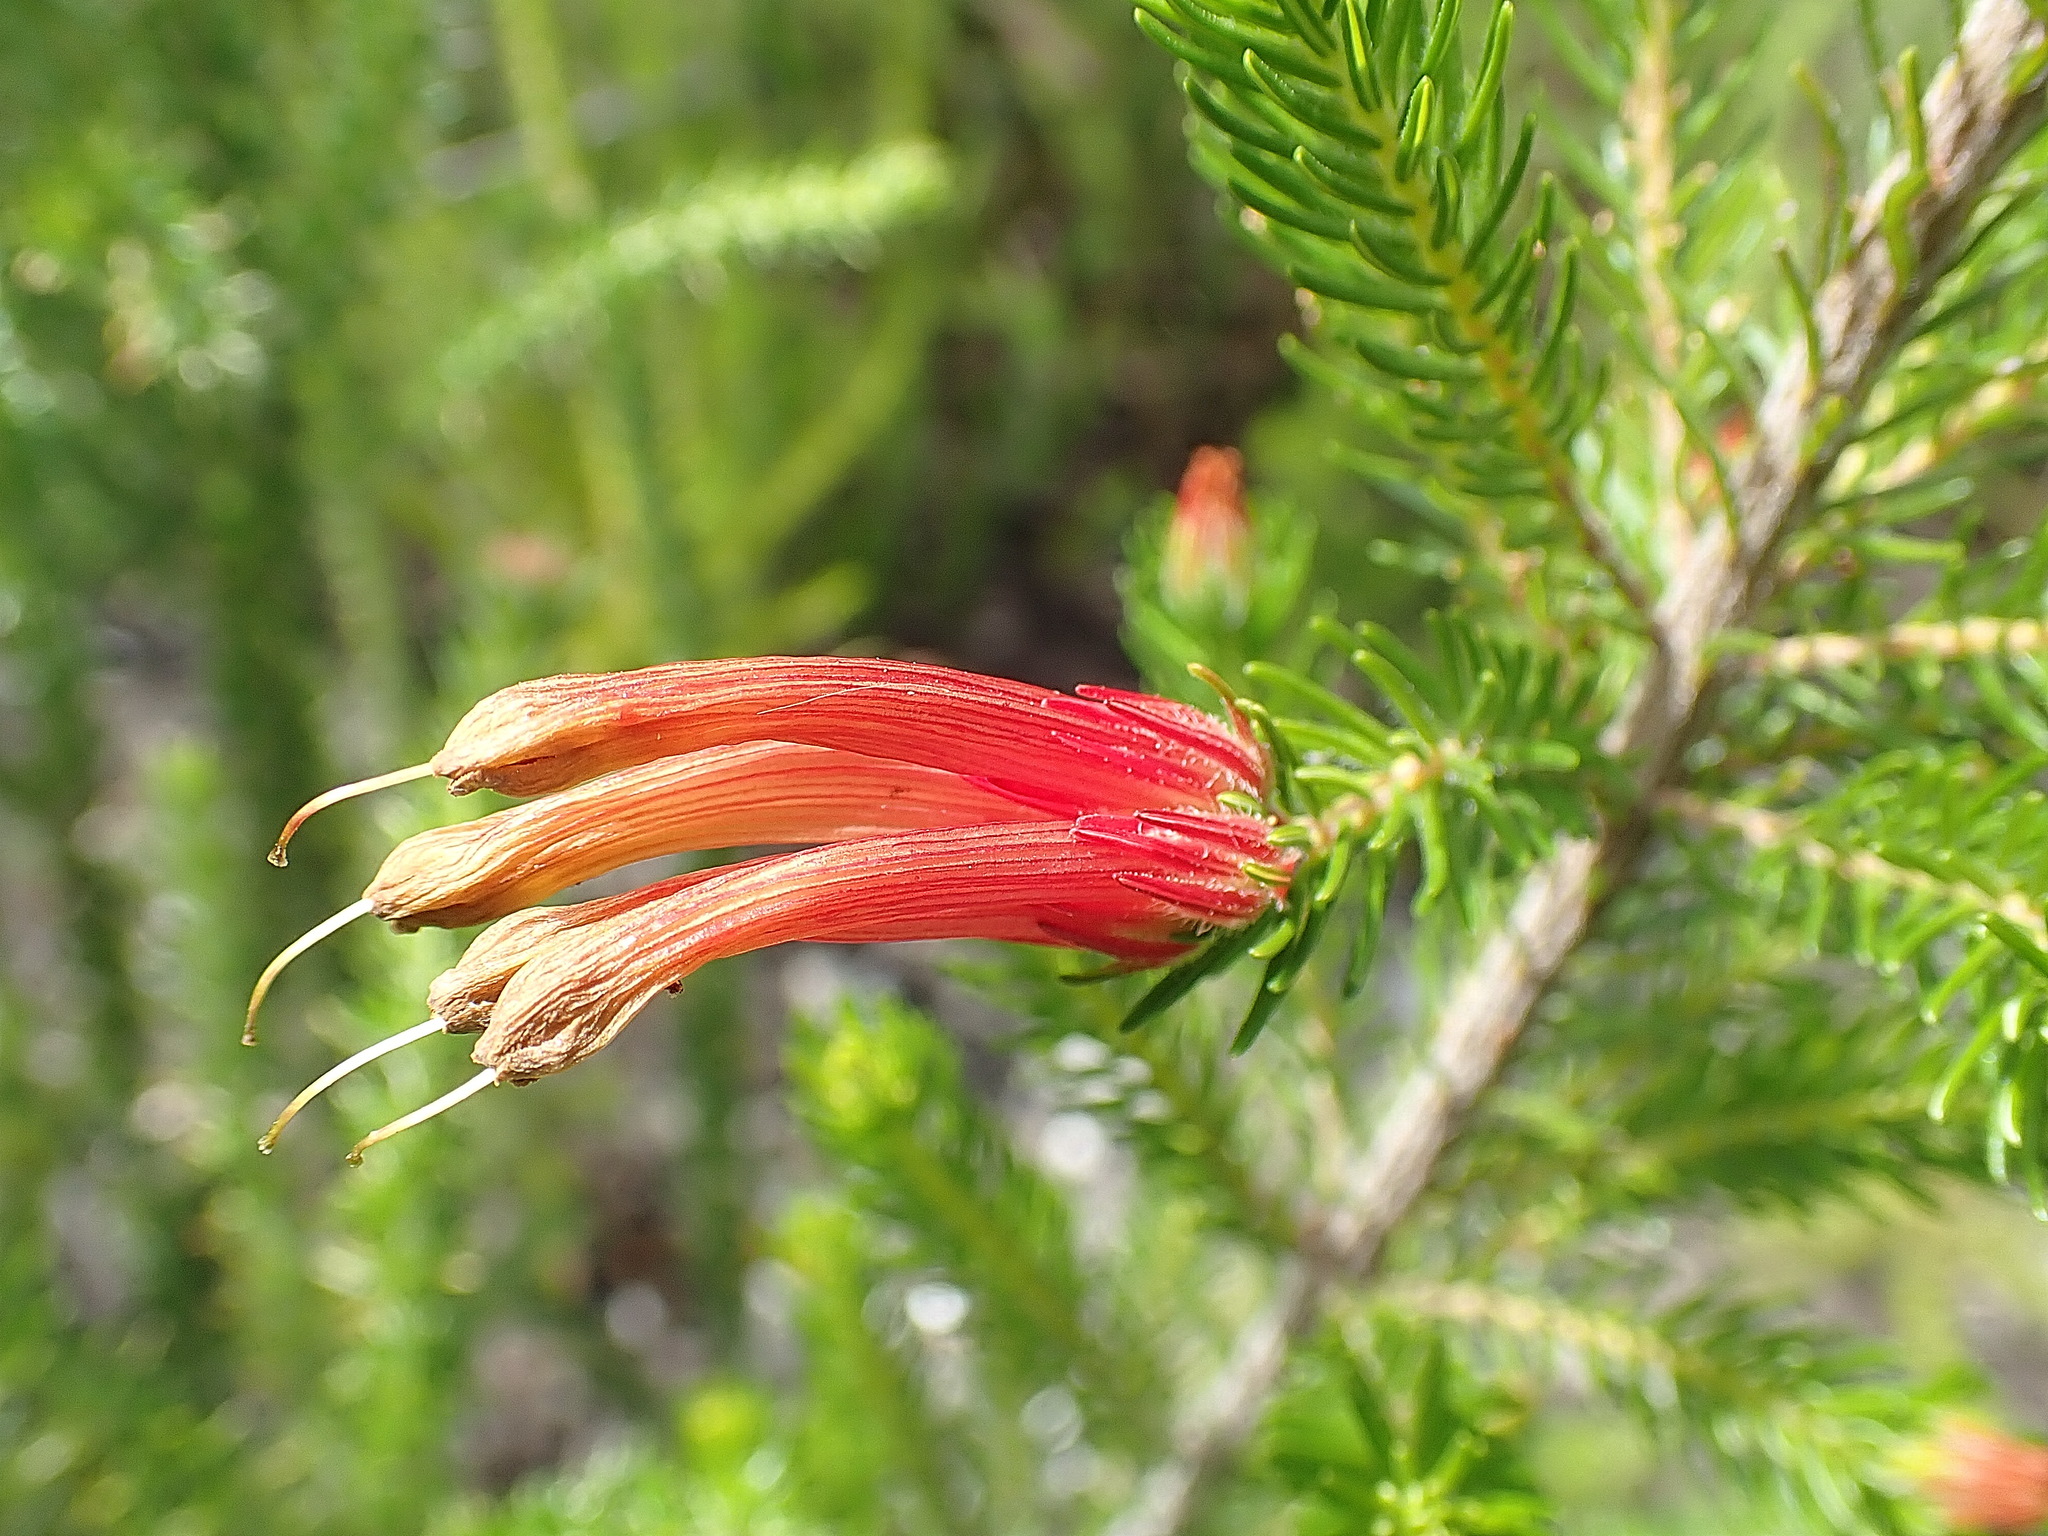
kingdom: Plantae
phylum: Tracheophyta
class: Magnoliopsida
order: Ericales
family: Ericaceae
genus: Erica
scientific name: Erica unicolor
